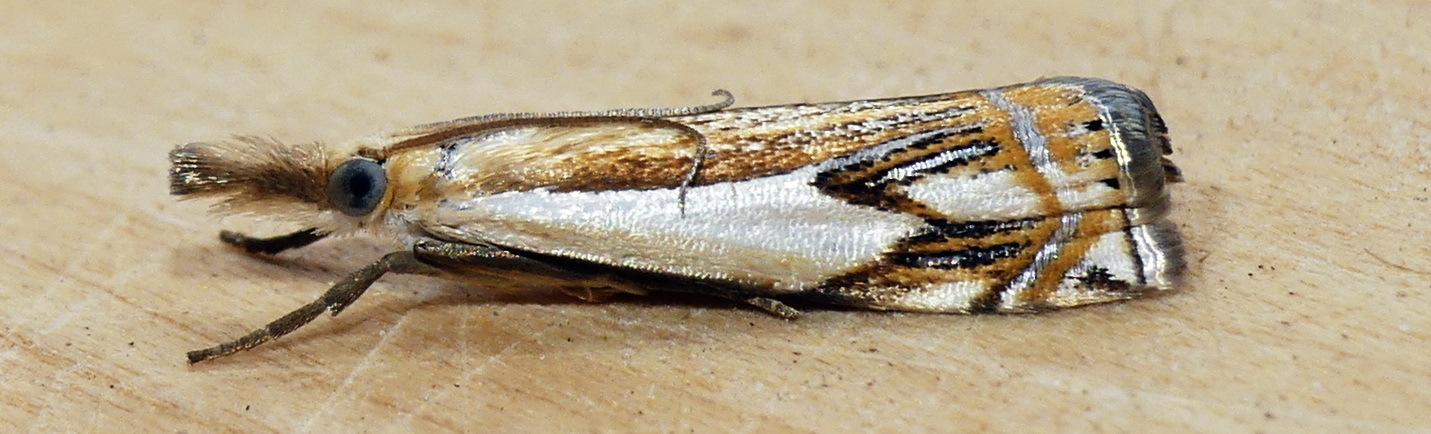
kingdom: Animalia
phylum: Arthropoda
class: Insecta
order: Lepidoptera
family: Crambidae
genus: Crambus
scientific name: Crambus agitatellus
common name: Double-banded grass-veneer
